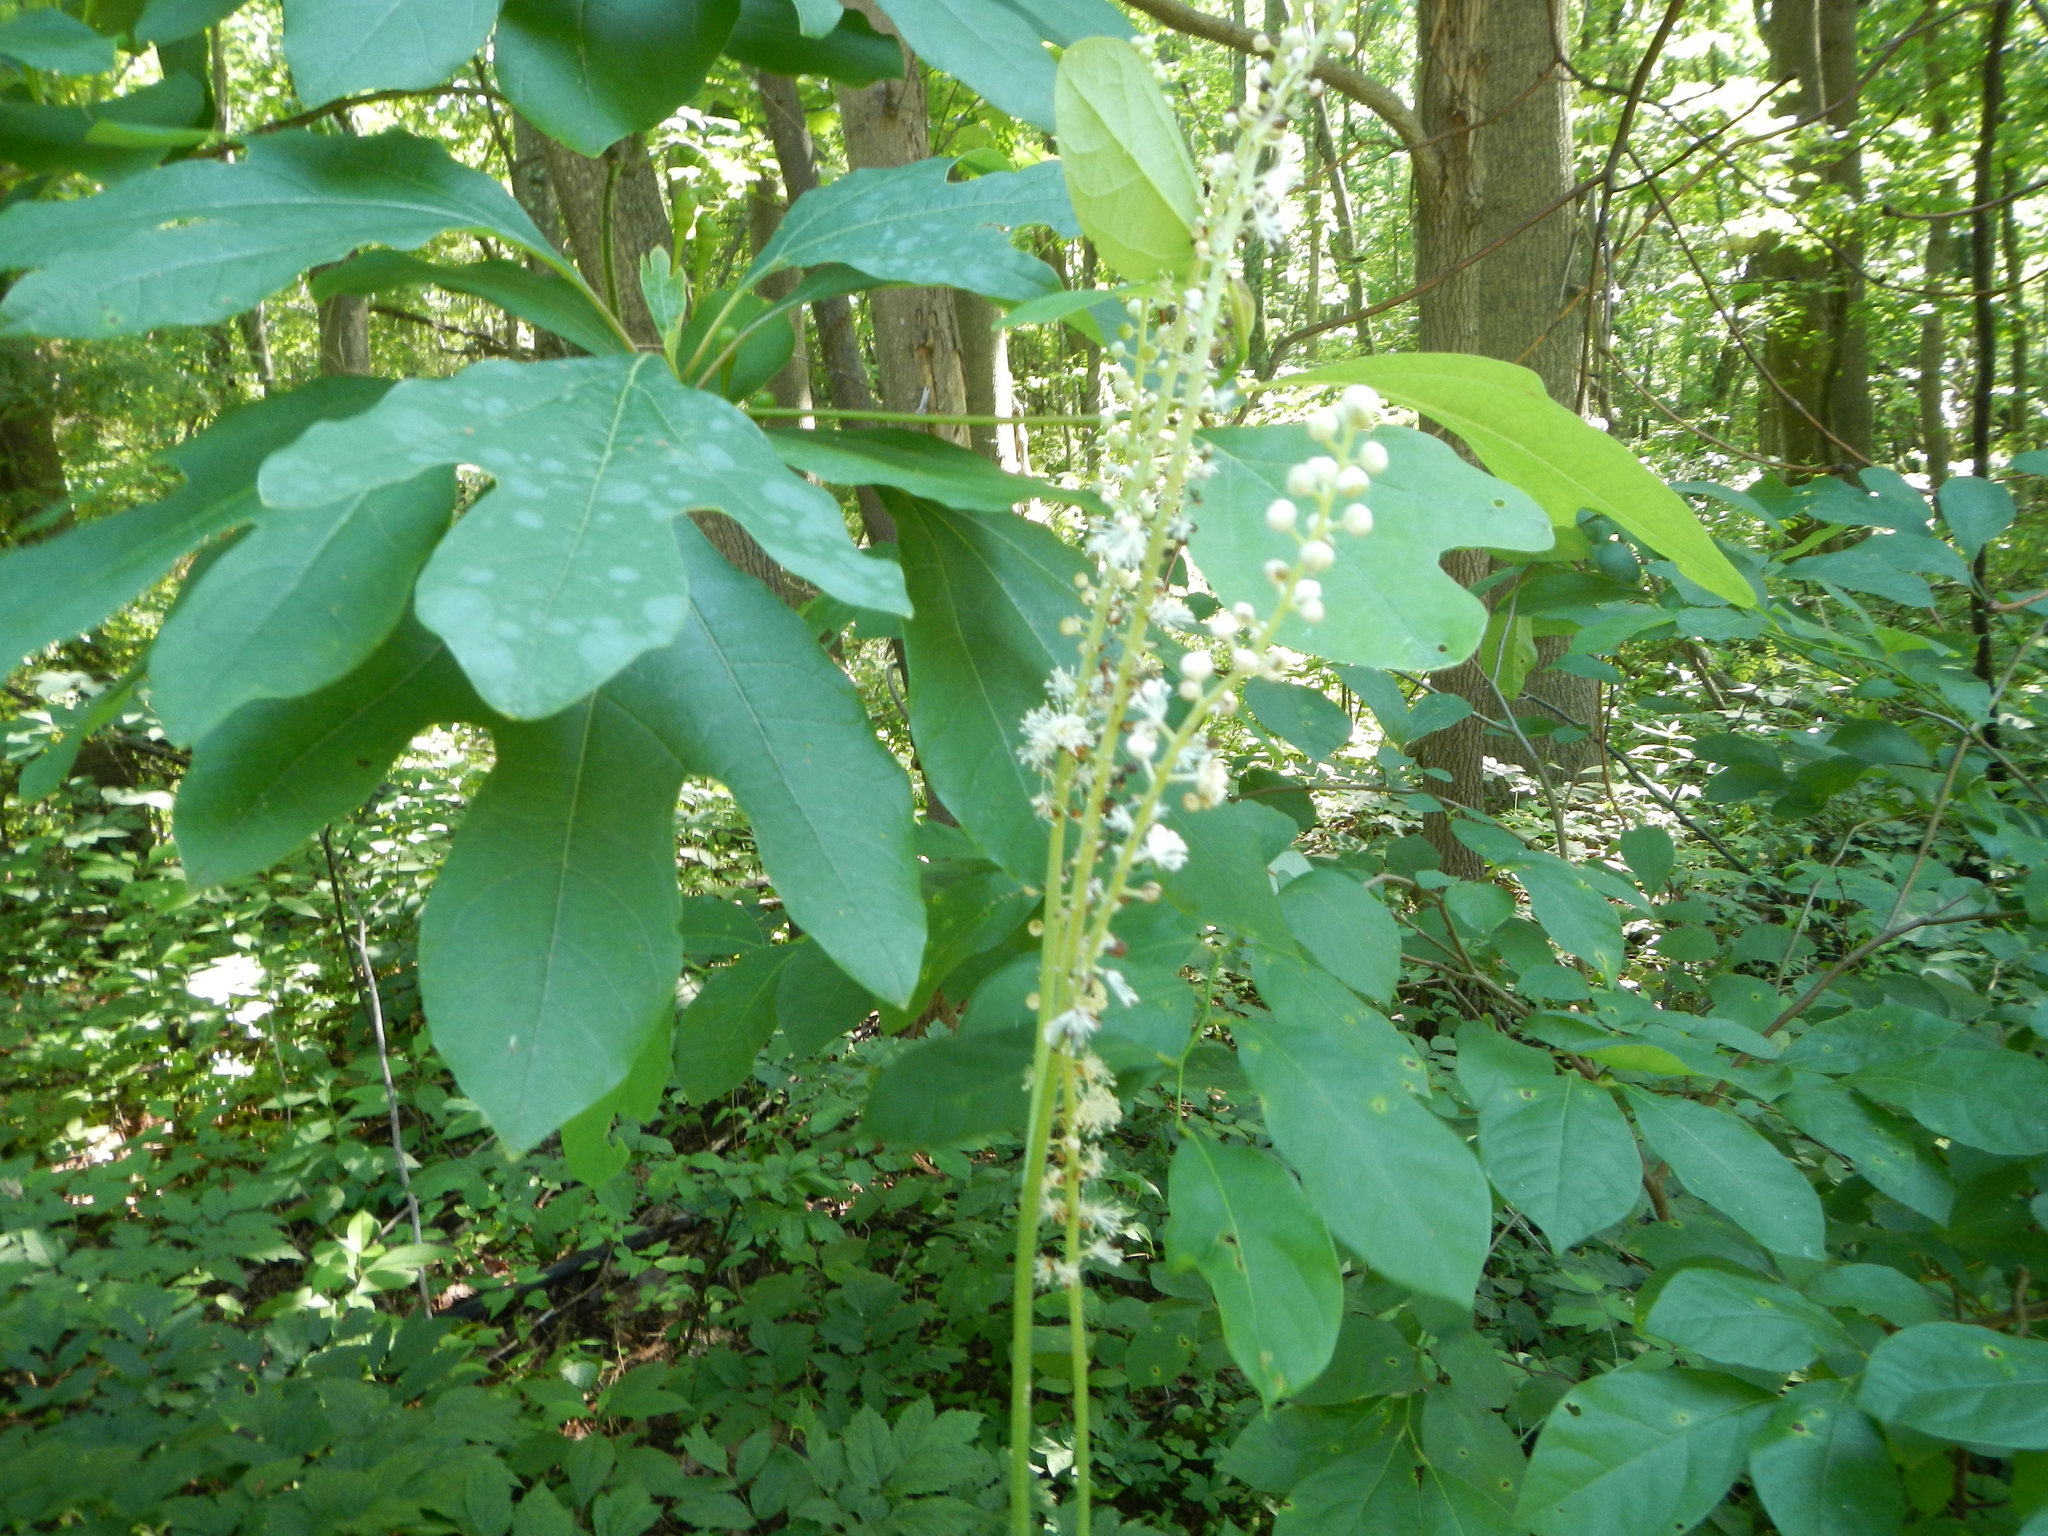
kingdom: Plantae
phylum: Tracheophyta
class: Magnoliopsida
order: Laurales
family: Lauraceae
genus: Sassafras
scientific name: Sassafras albidum
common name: Sassafras
